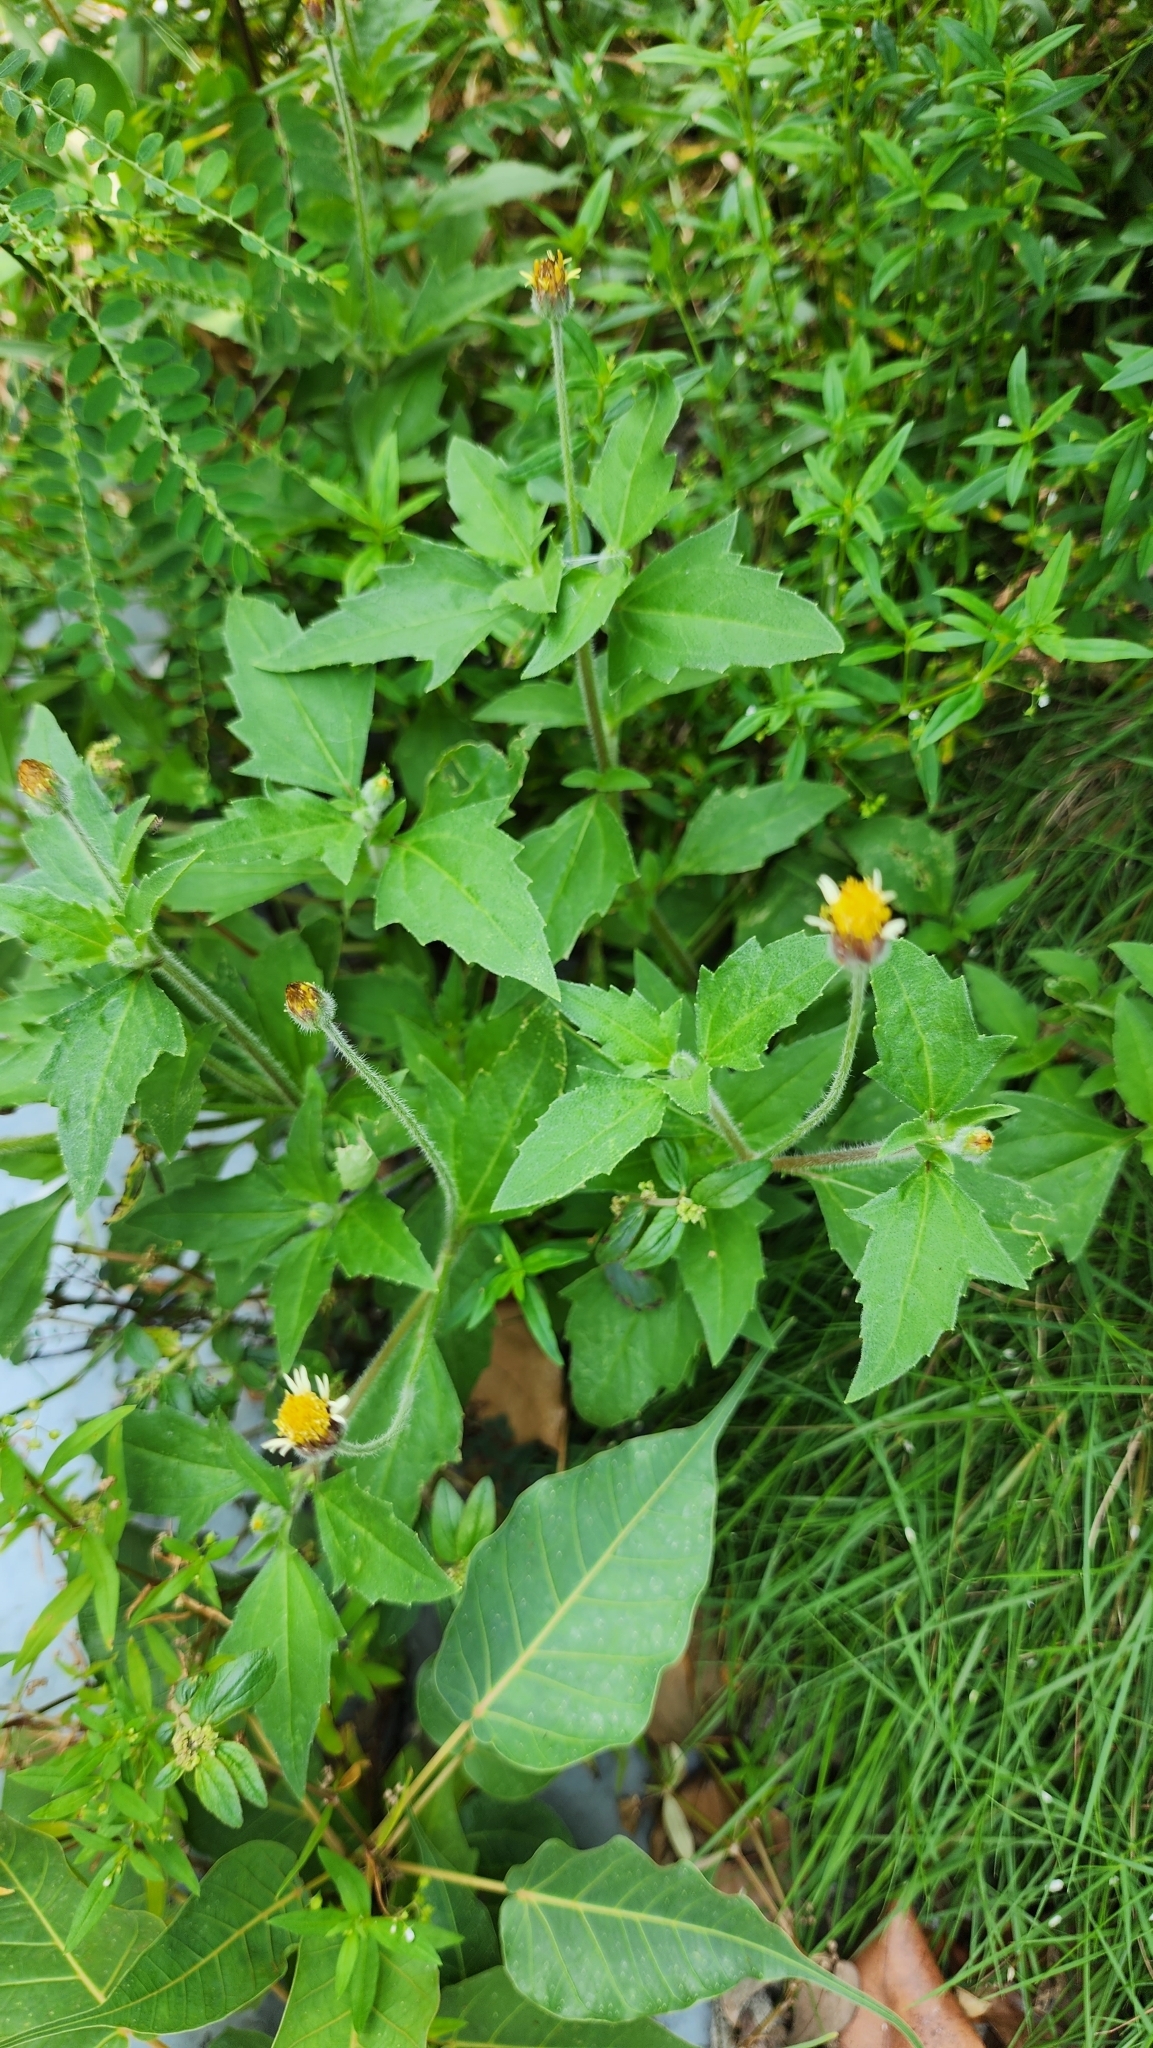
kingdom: Plantae
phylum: Tracheophyta
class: Magnoliopsida
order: Asterales
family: Asteraceae
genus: Tridax
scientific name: Tridax procumbens
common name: Coatbuttons
